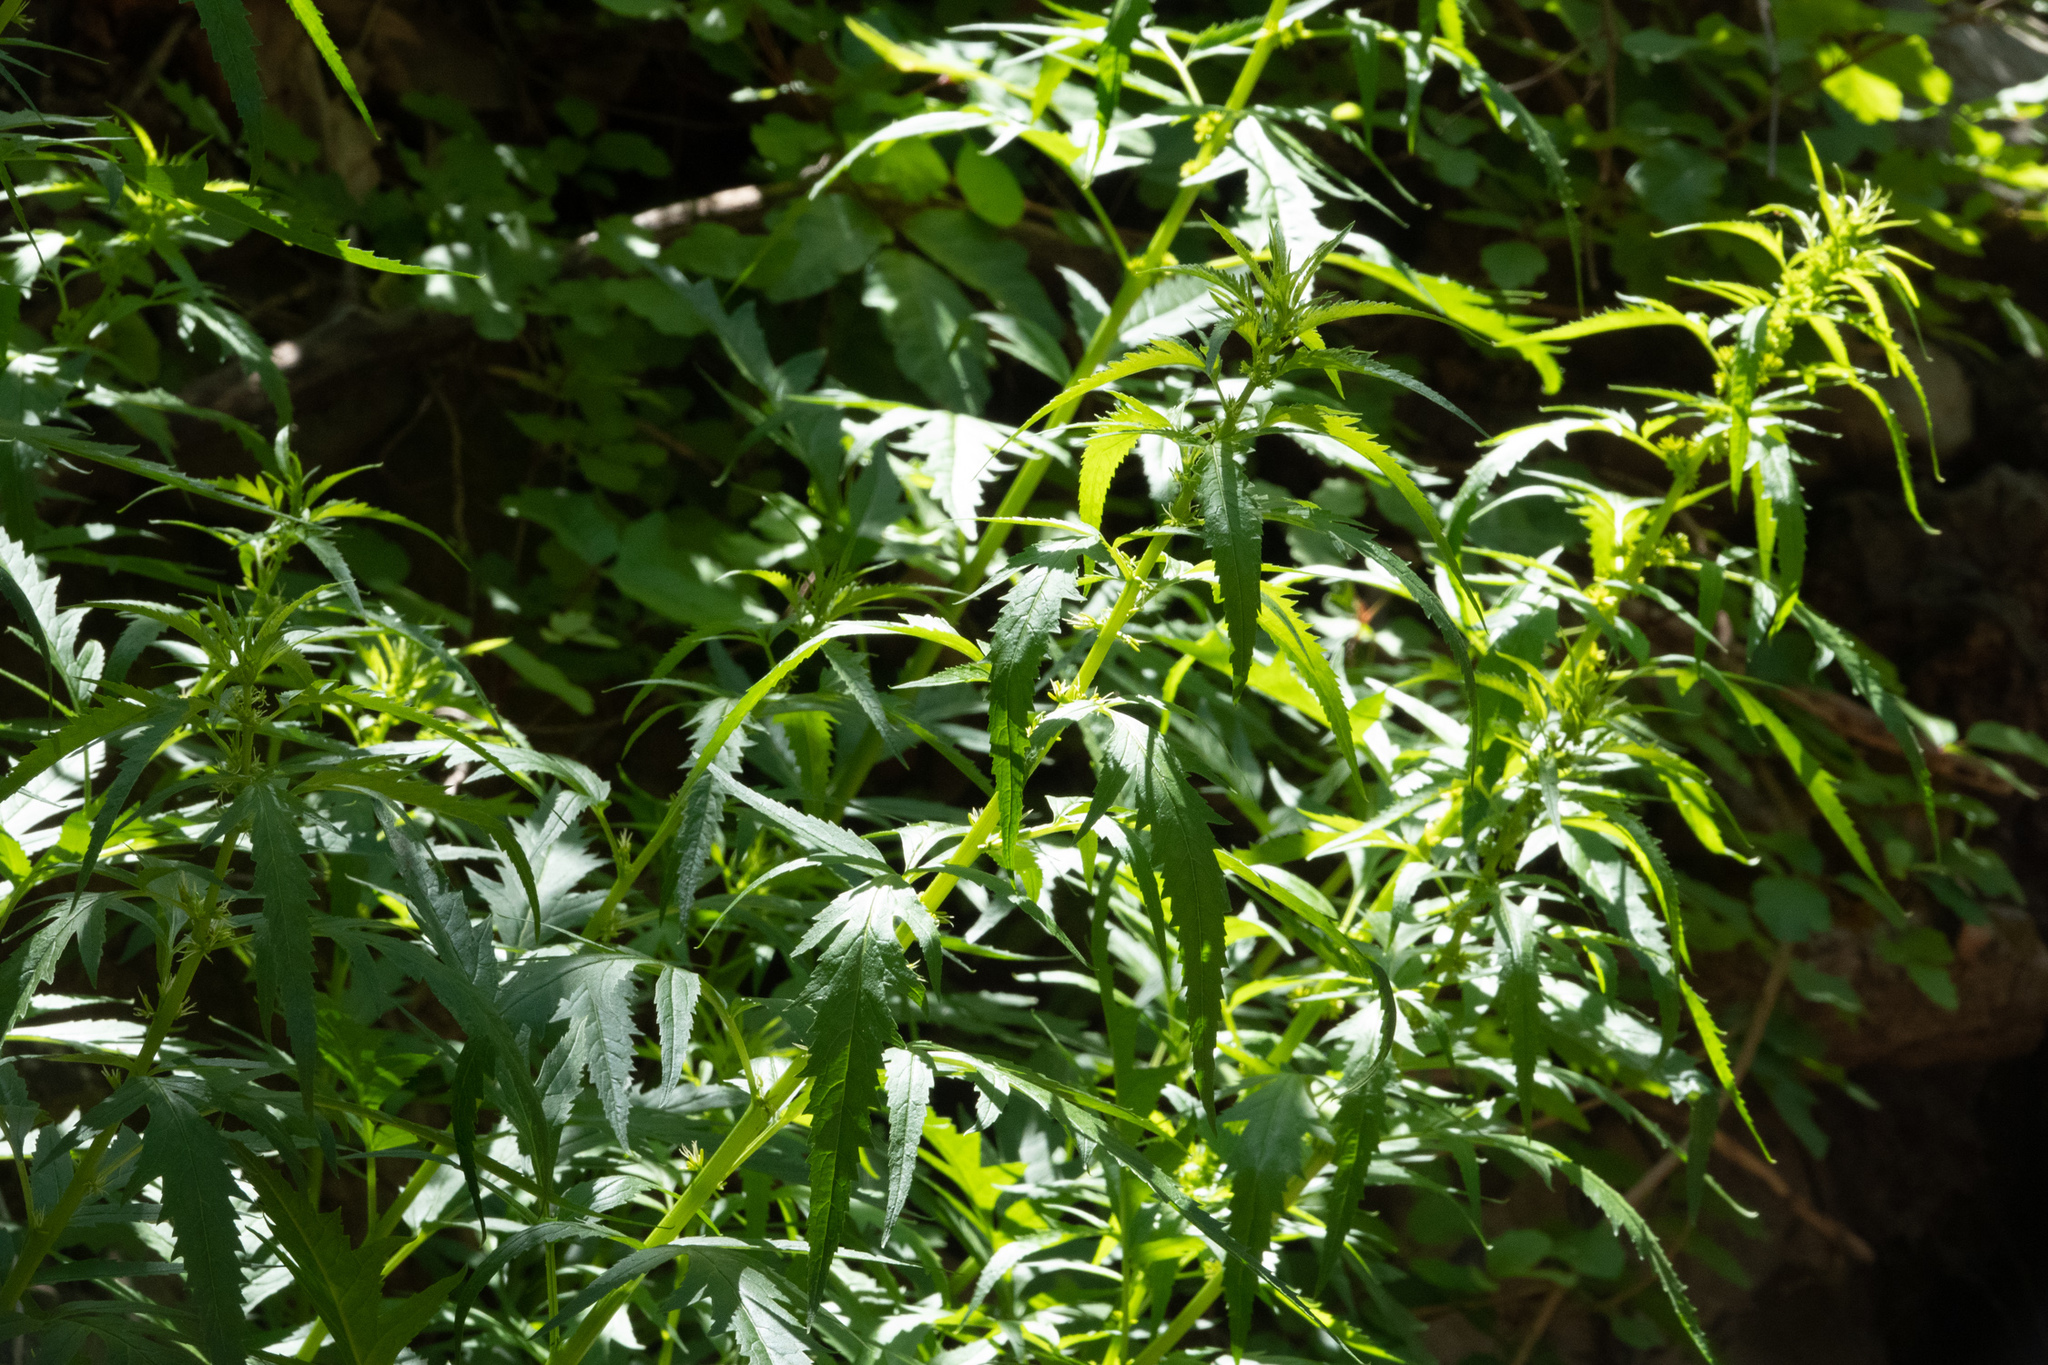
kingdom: Plantae
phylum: Tracheophyta
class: Magnoliopsida
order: Cucurbitales
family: Datiscaceae
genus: Datisca
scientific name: Datisca glomerata
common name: Durango-root
